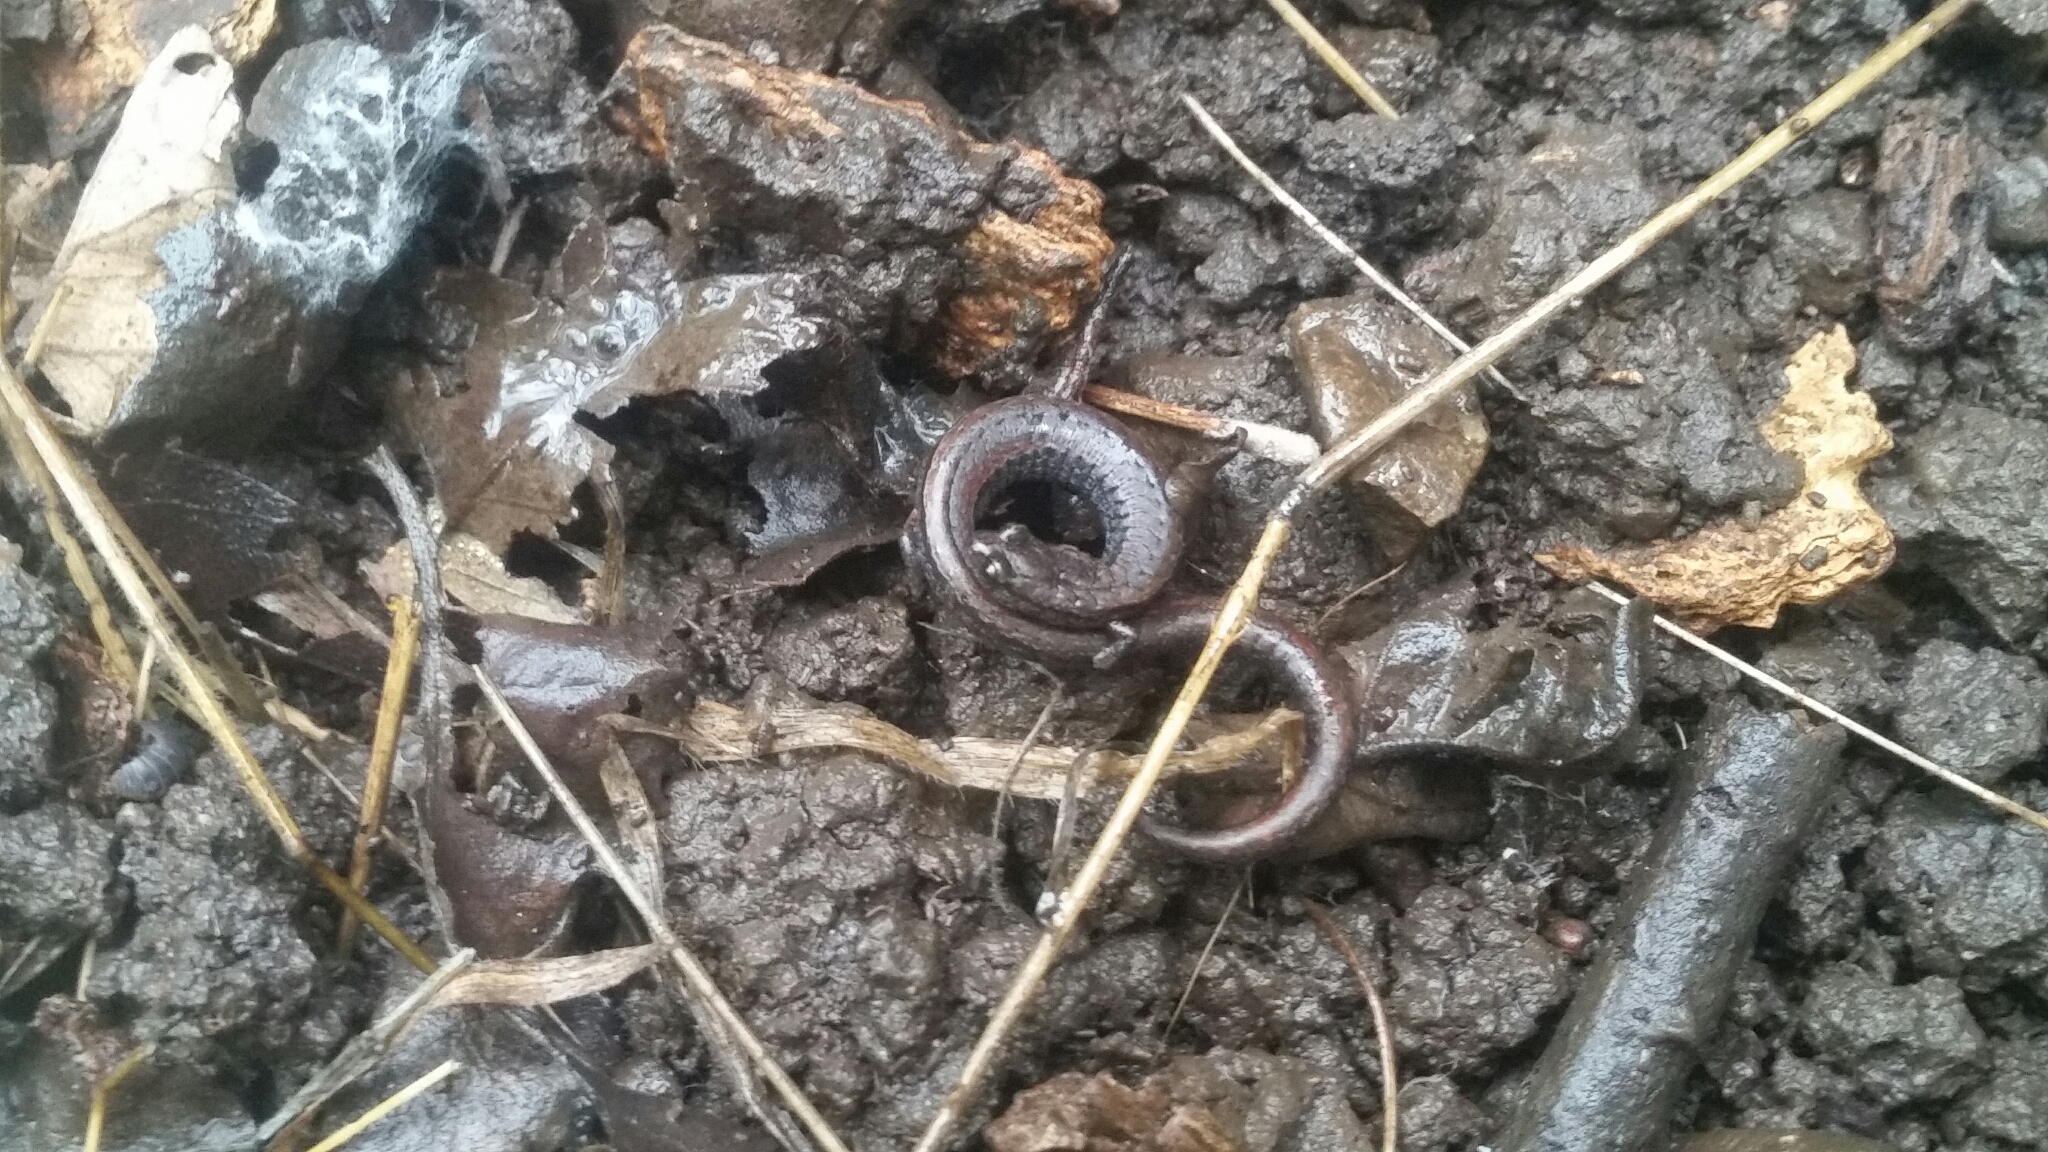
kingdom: Animalia
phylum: Chordata
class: Amphibia
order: Caudata
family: Plethodontidae
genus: Batrachoseps
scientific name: Batrachoseps attenuatus
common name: California slender salamander
